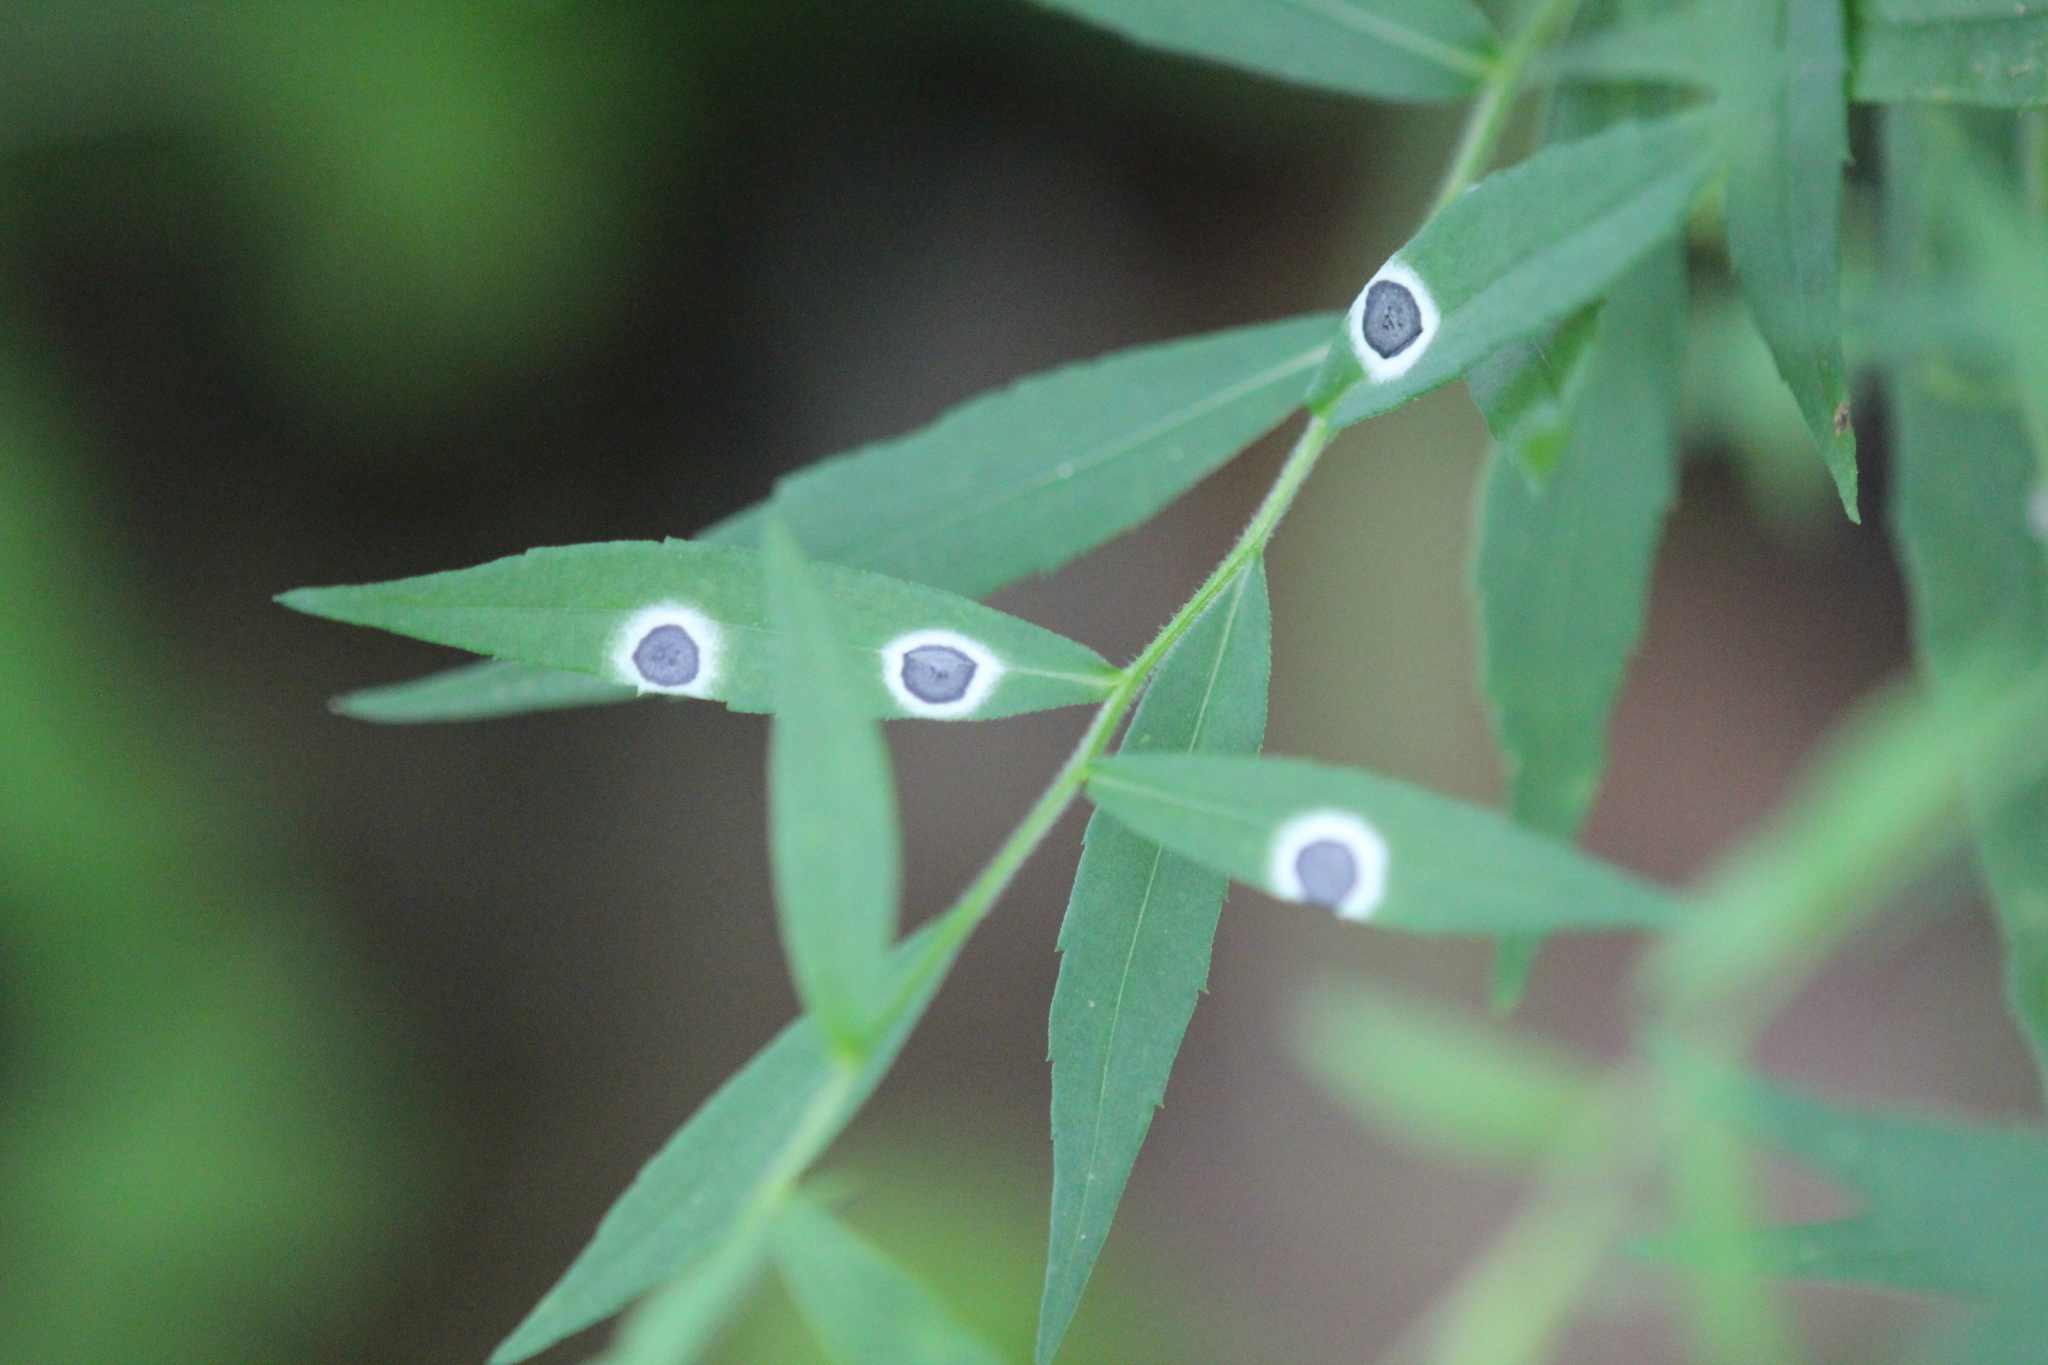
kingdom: Animalia
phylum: Arthropoda
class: Insecta
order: Diptera
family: Cecidomyiidae
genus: Asteromyia
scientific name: Asteromyia carbonifera
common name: Carbonifera goldenrod gall midge
